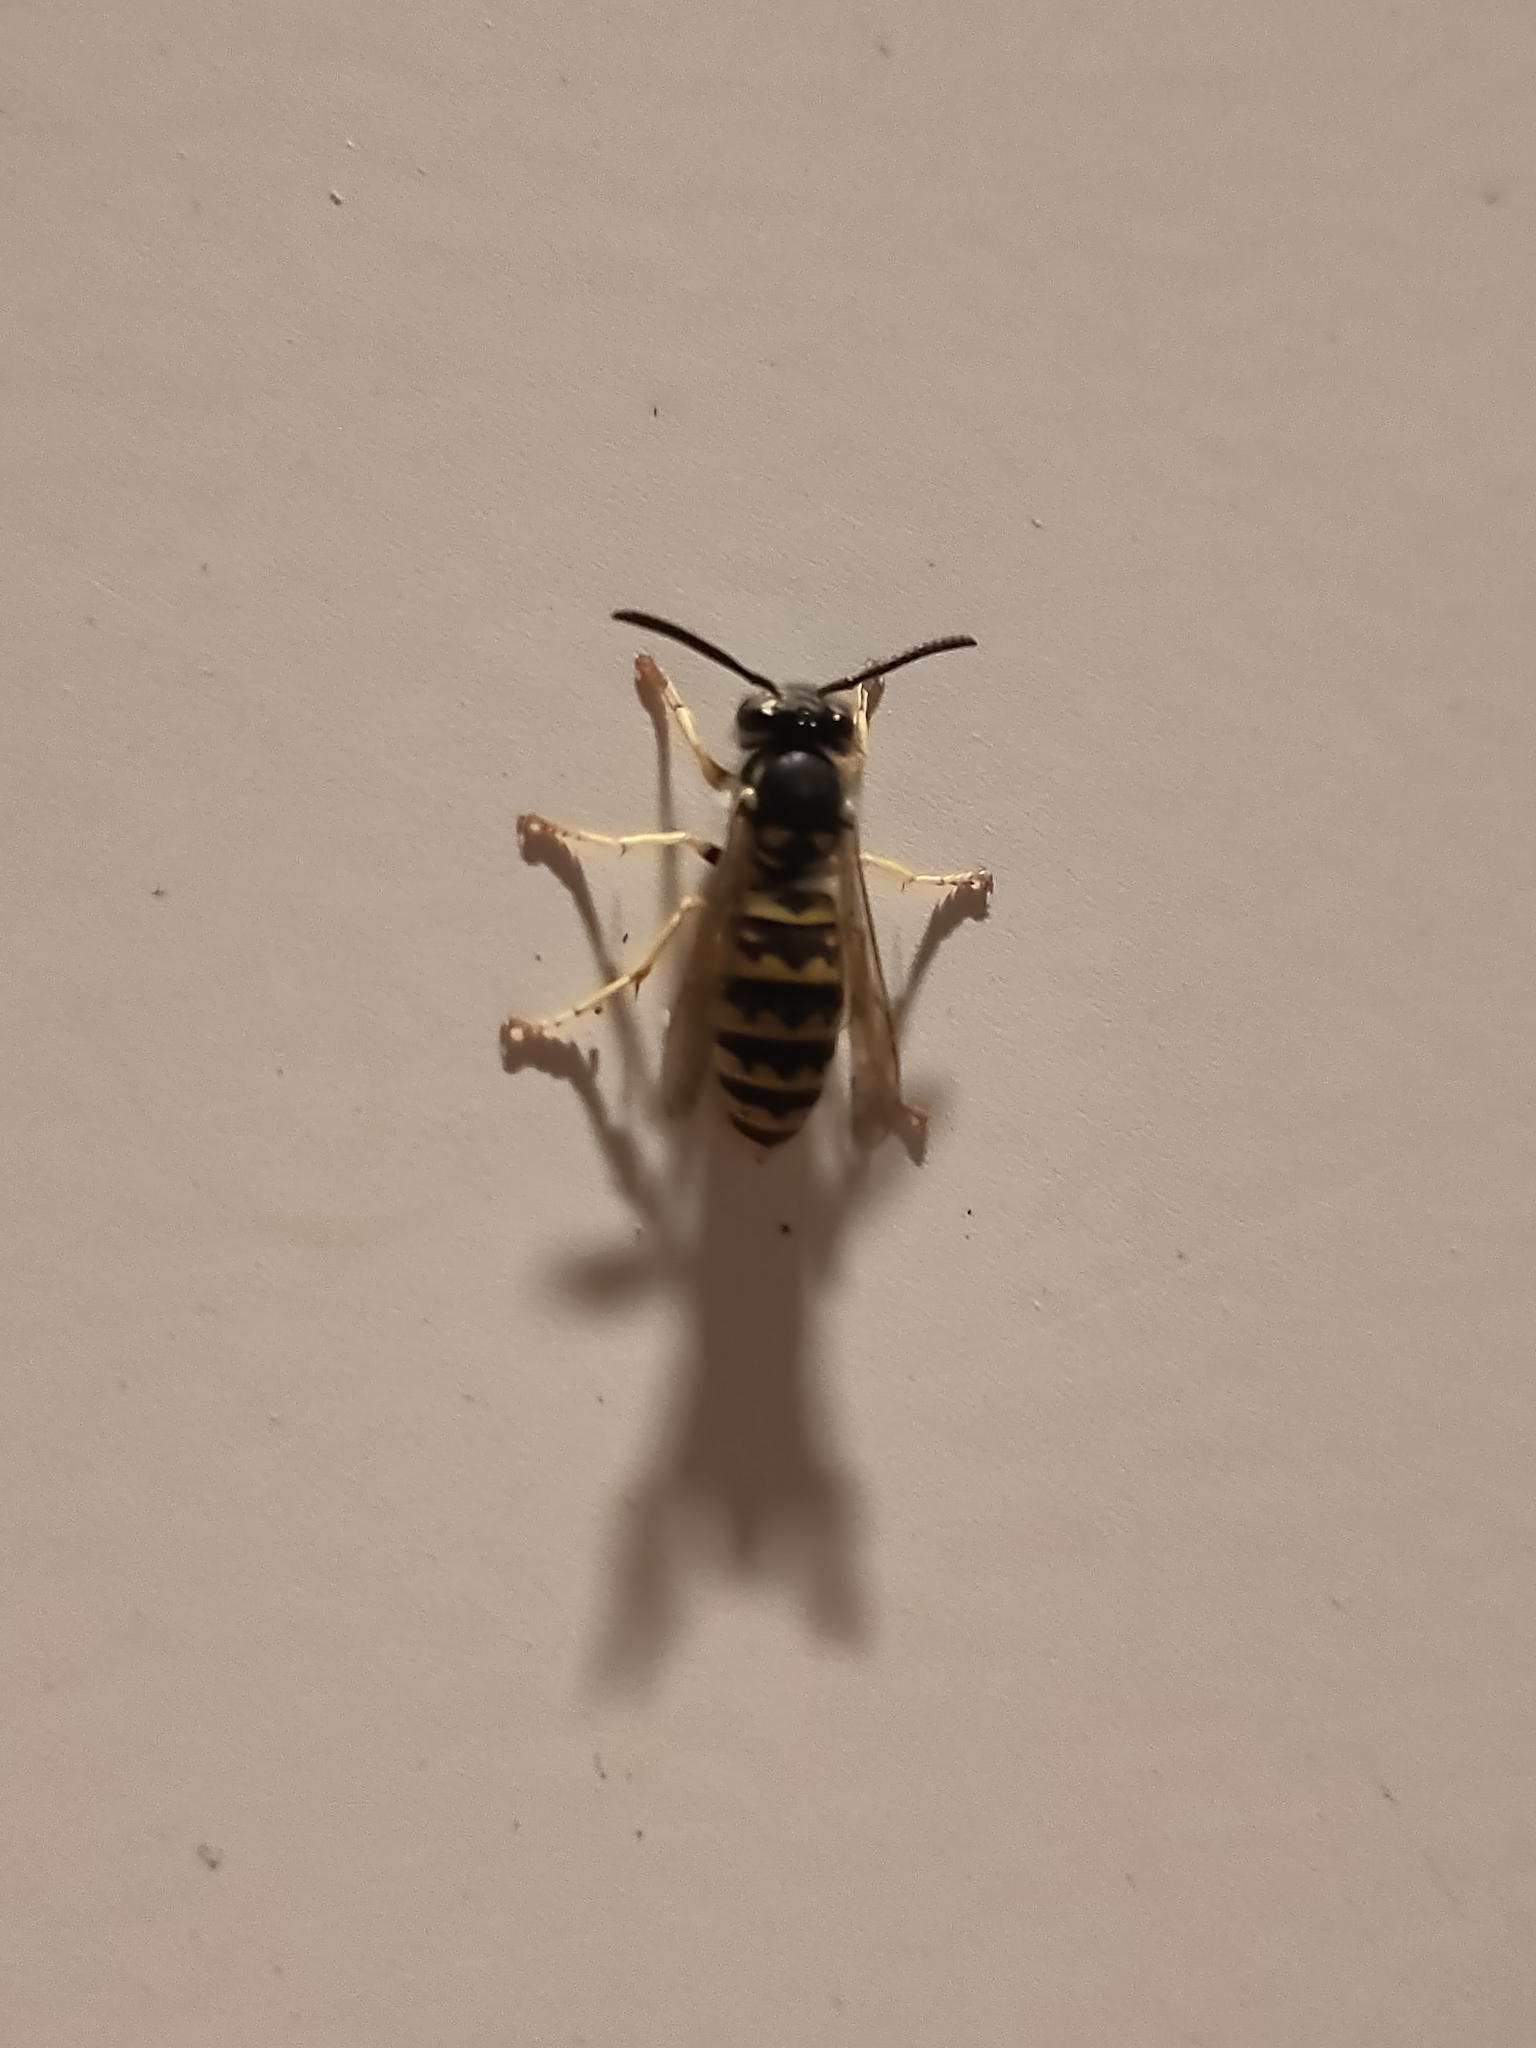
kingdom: Animalia
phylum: Arthropoda
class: Insecta
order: Hymenoptera
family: Vespidae
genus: Vespula
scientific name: Vespula germanica
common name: German wasp
